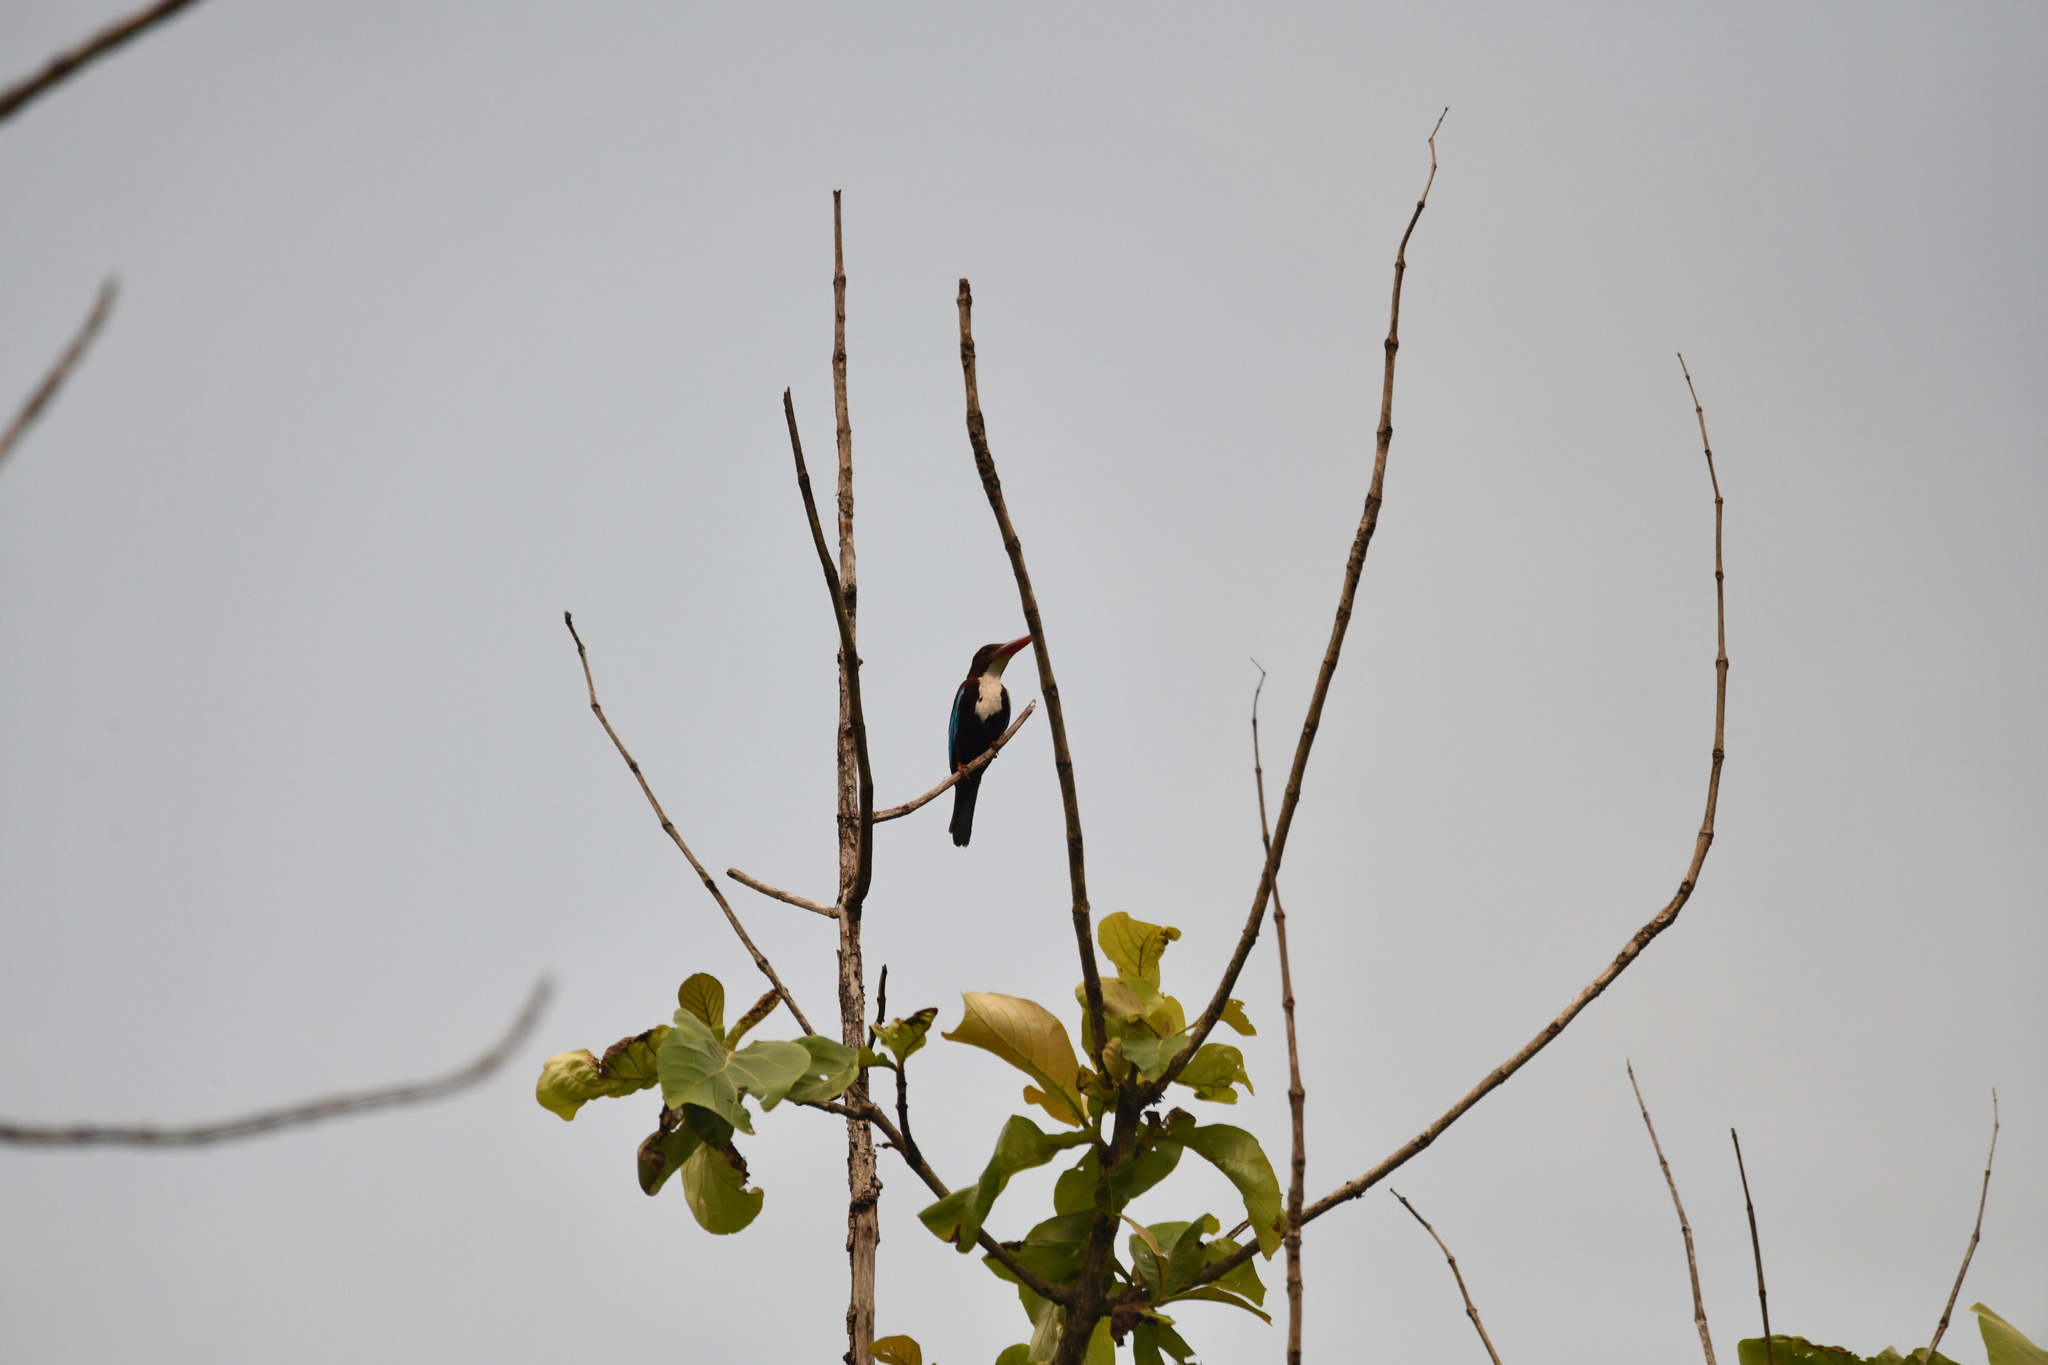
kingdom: Animalia
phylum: Chordata
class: Aves
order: Coraciiformes
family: Alcedinidae
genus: Halcyon
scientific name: Halcyon smyrnensis
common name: White-throated kingfisher
